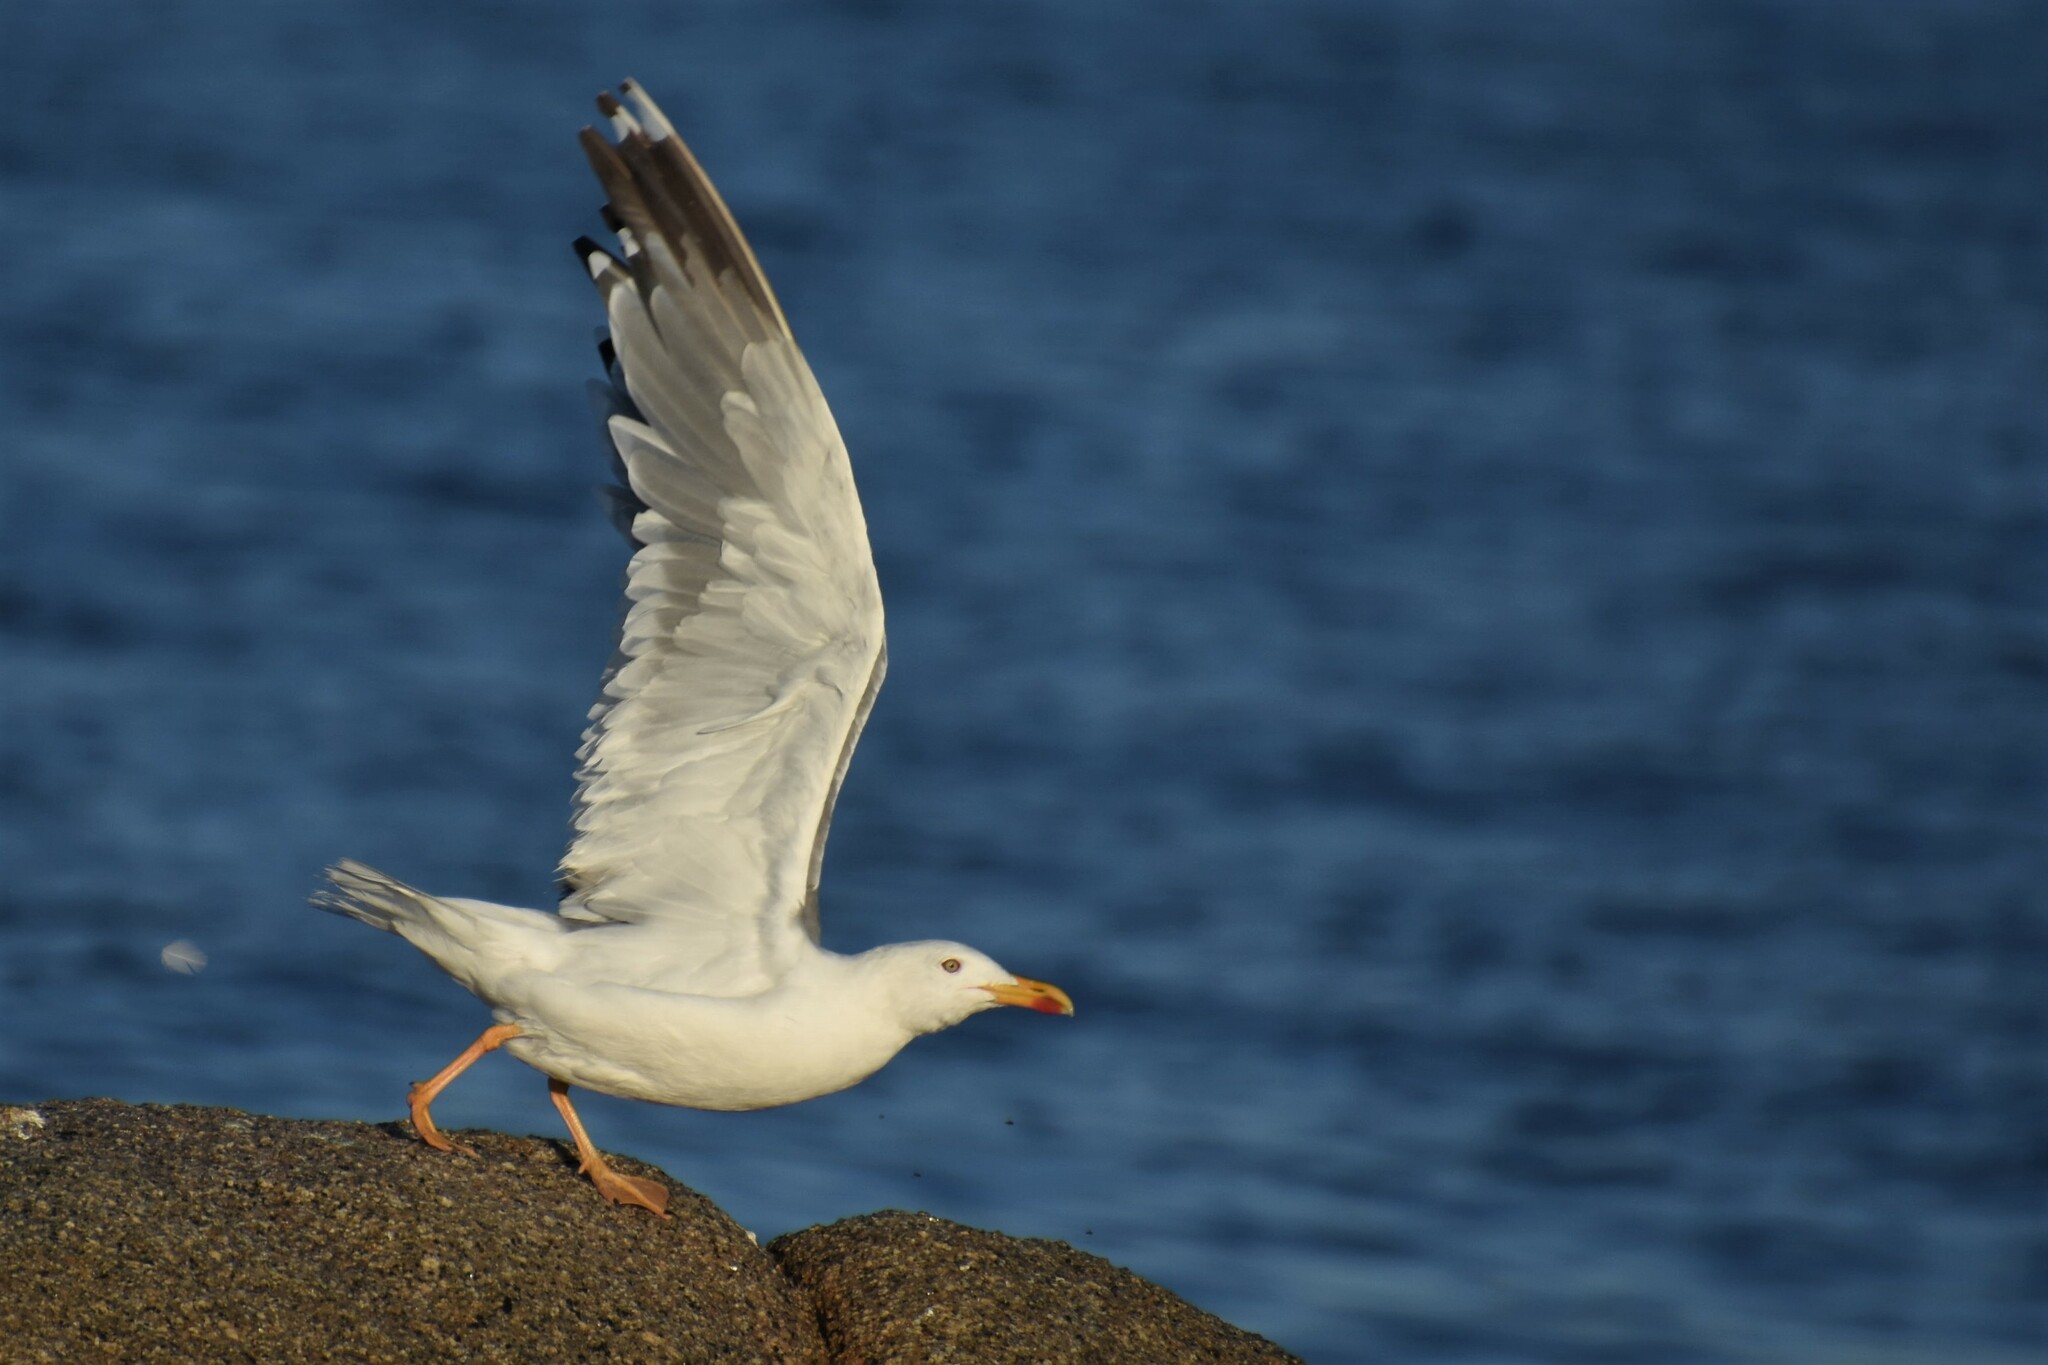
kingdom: Animalia
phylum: Chordata
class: Aves
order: Charadriiformes
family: Laridae
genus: Larus
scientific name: Larus michahellis
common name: Yellow-legged gull
